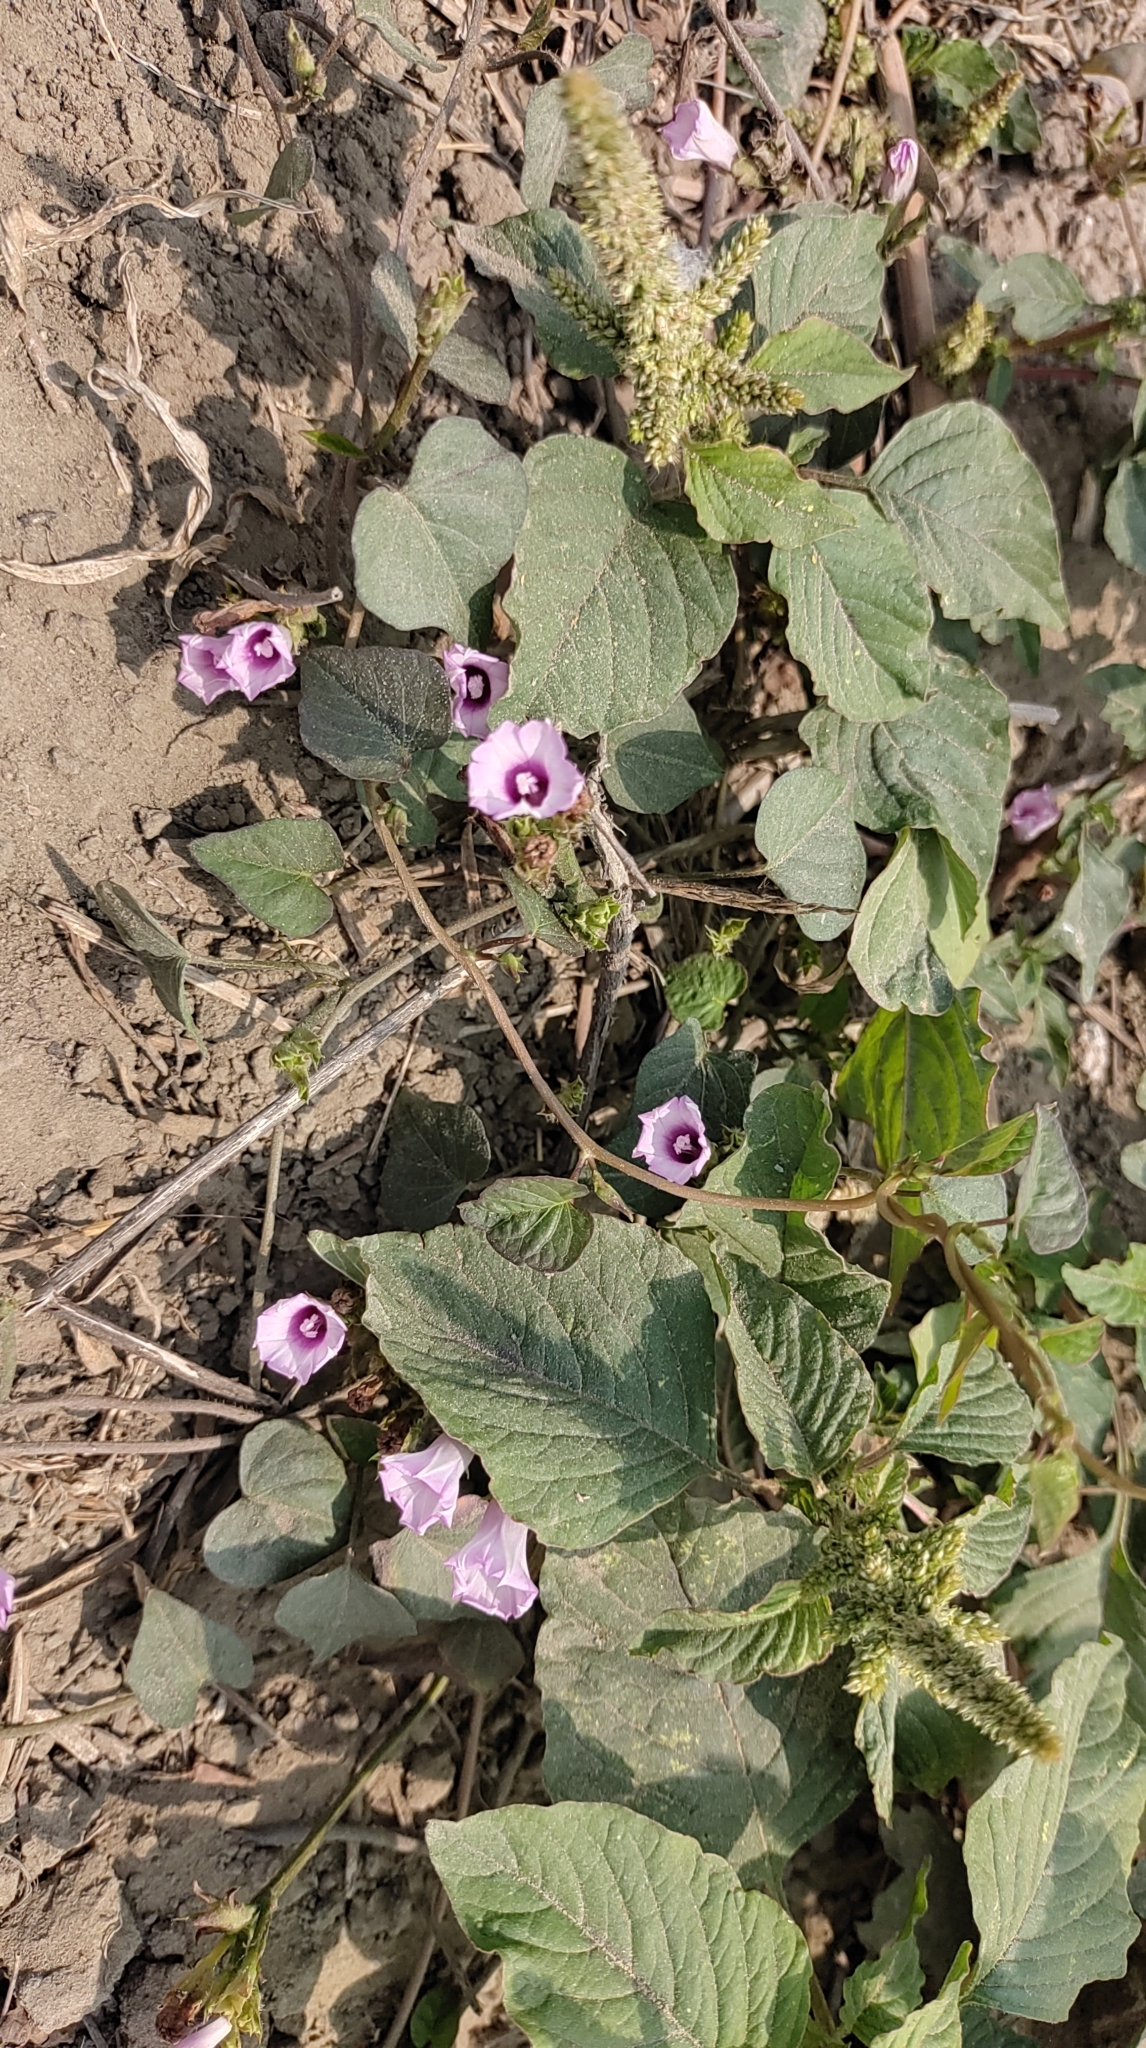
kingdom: Plantae
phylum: Tracheophyta
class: Magnoliopsida
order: Solanales
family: Convolvulaceae
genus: Ipomoea
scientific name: Ipomoea triloba
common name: Little-bell
